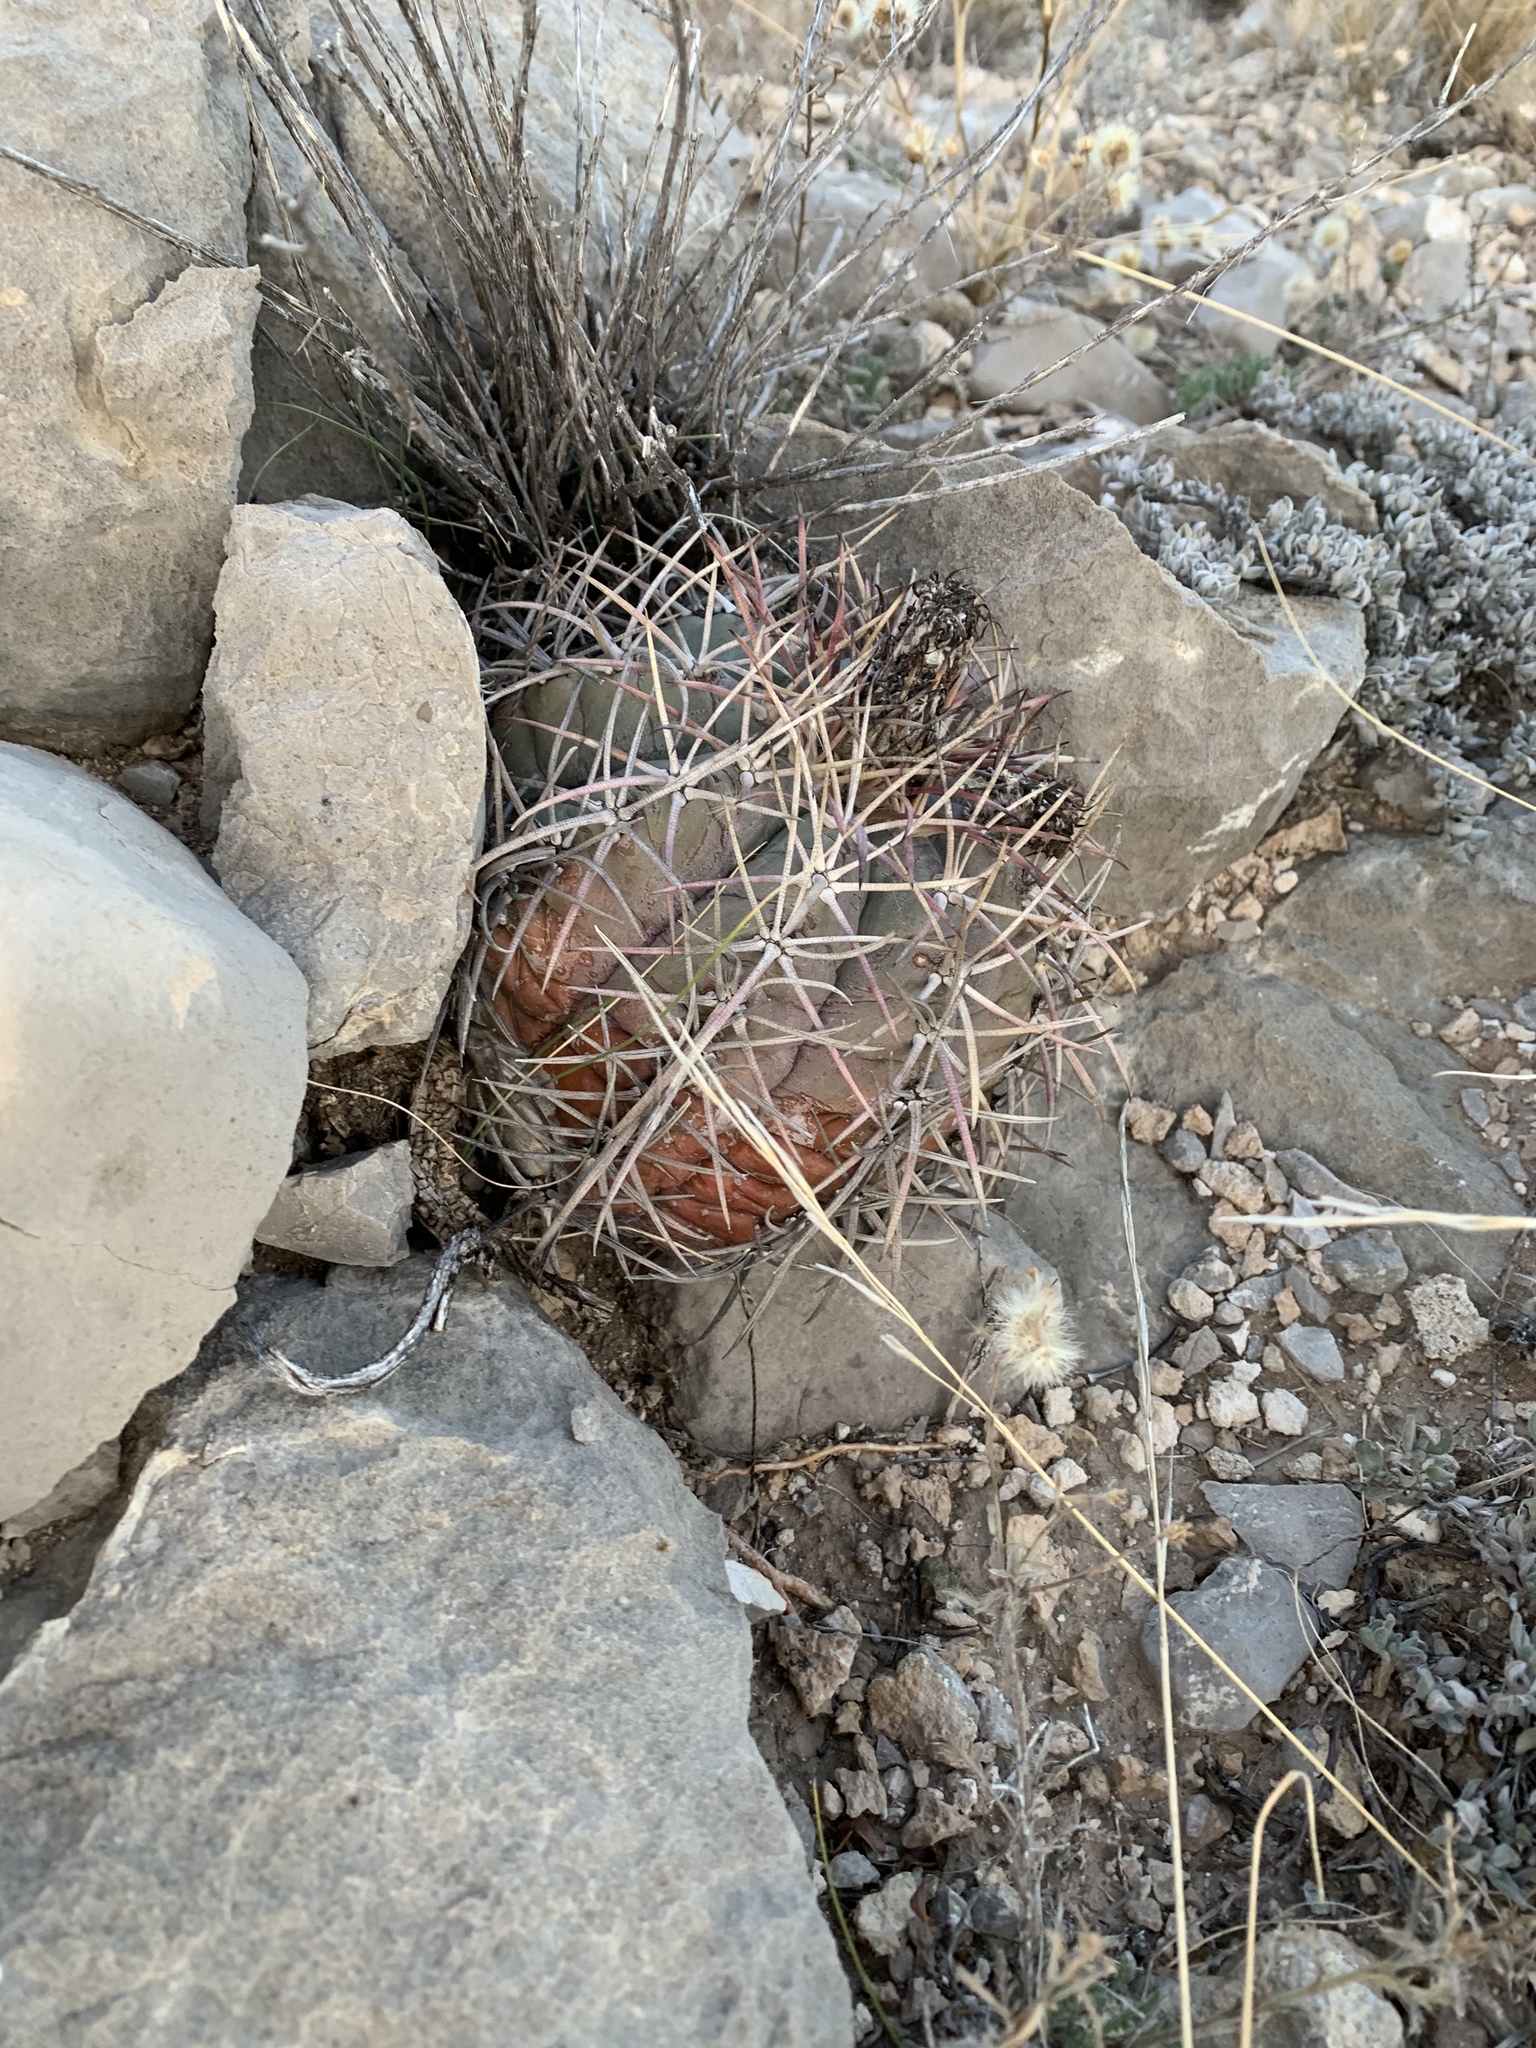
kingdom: Plantae
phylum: Tracheophyta
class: Magnoliopsida
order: Caryophyllales
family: Cactaceae
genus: Echinocactus
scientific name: Echinocactus horizonthalonius
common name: Devilshead
